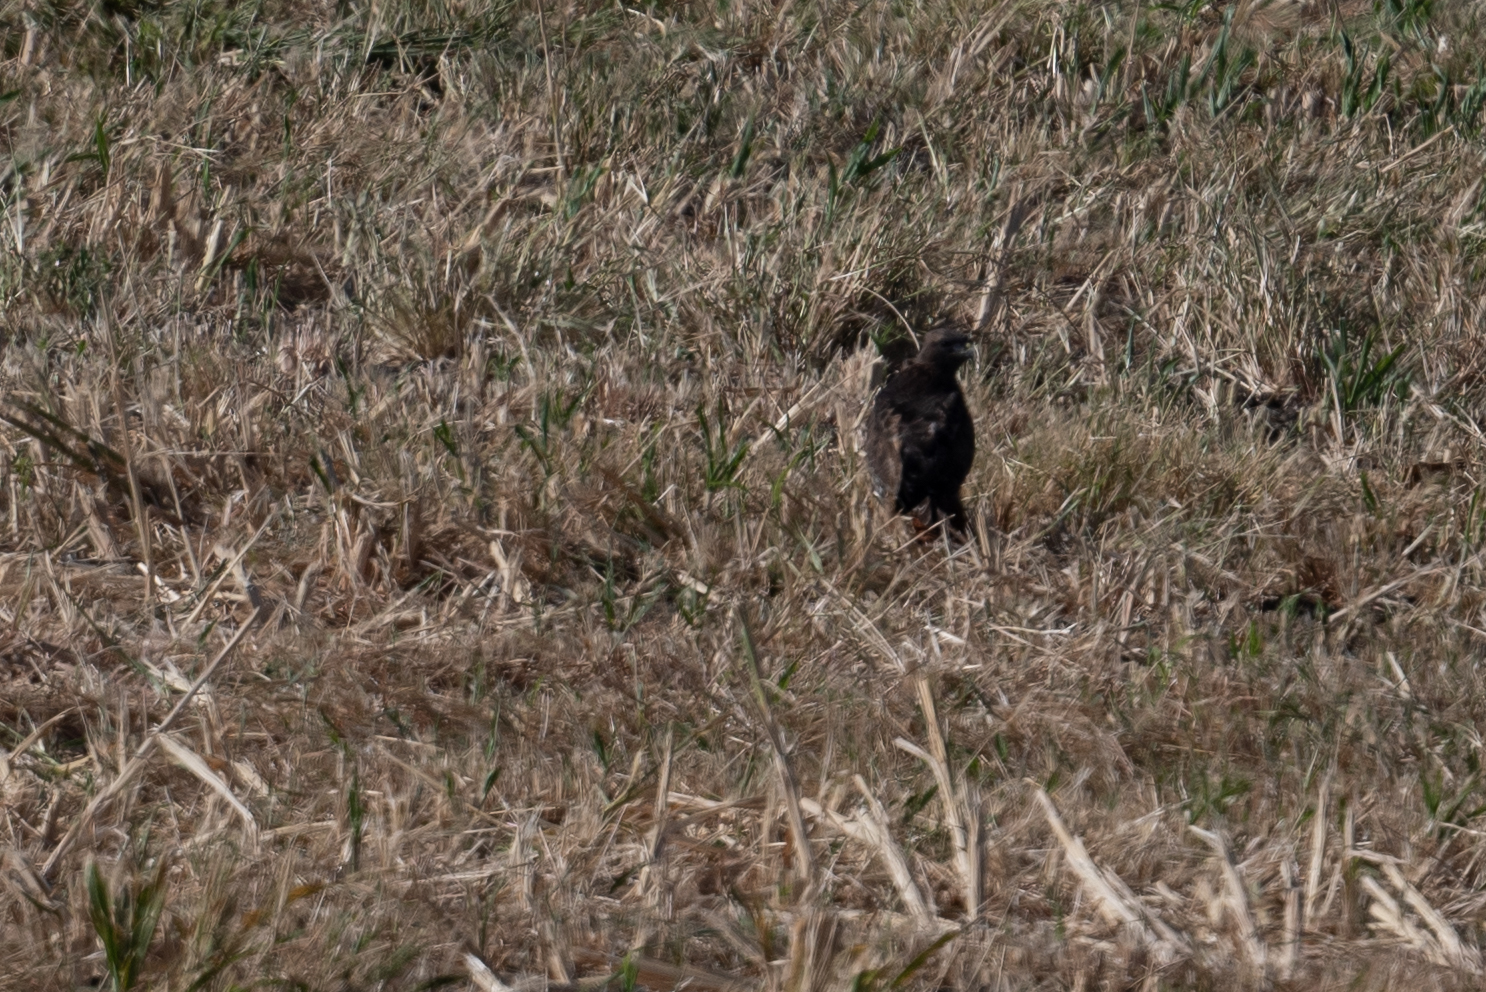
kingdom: Animalia
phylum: Chordata
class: Aves
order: Accipitriformes
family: Accipitridae
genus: Buteo
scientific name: Buteo jamaicensis
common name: Red-tailed hawk
